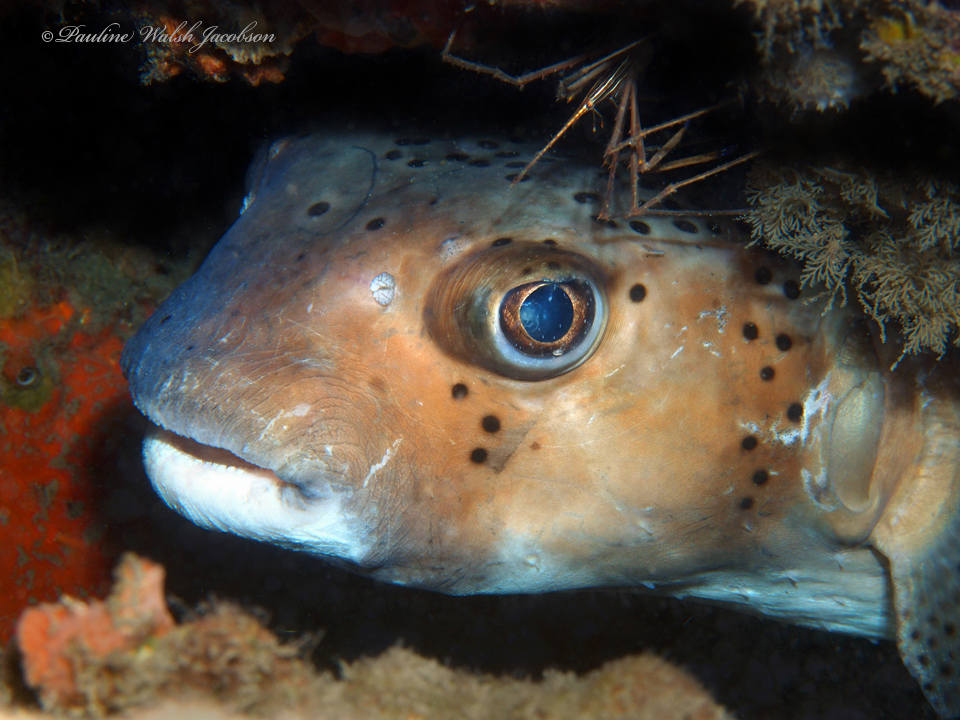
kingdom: Animalia
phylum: Chordata
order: Tetraodontiformes
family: Diodontidae
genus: Chilomycterus
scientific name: Chilomycterus reticulatus
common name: Spotfin burrfish
